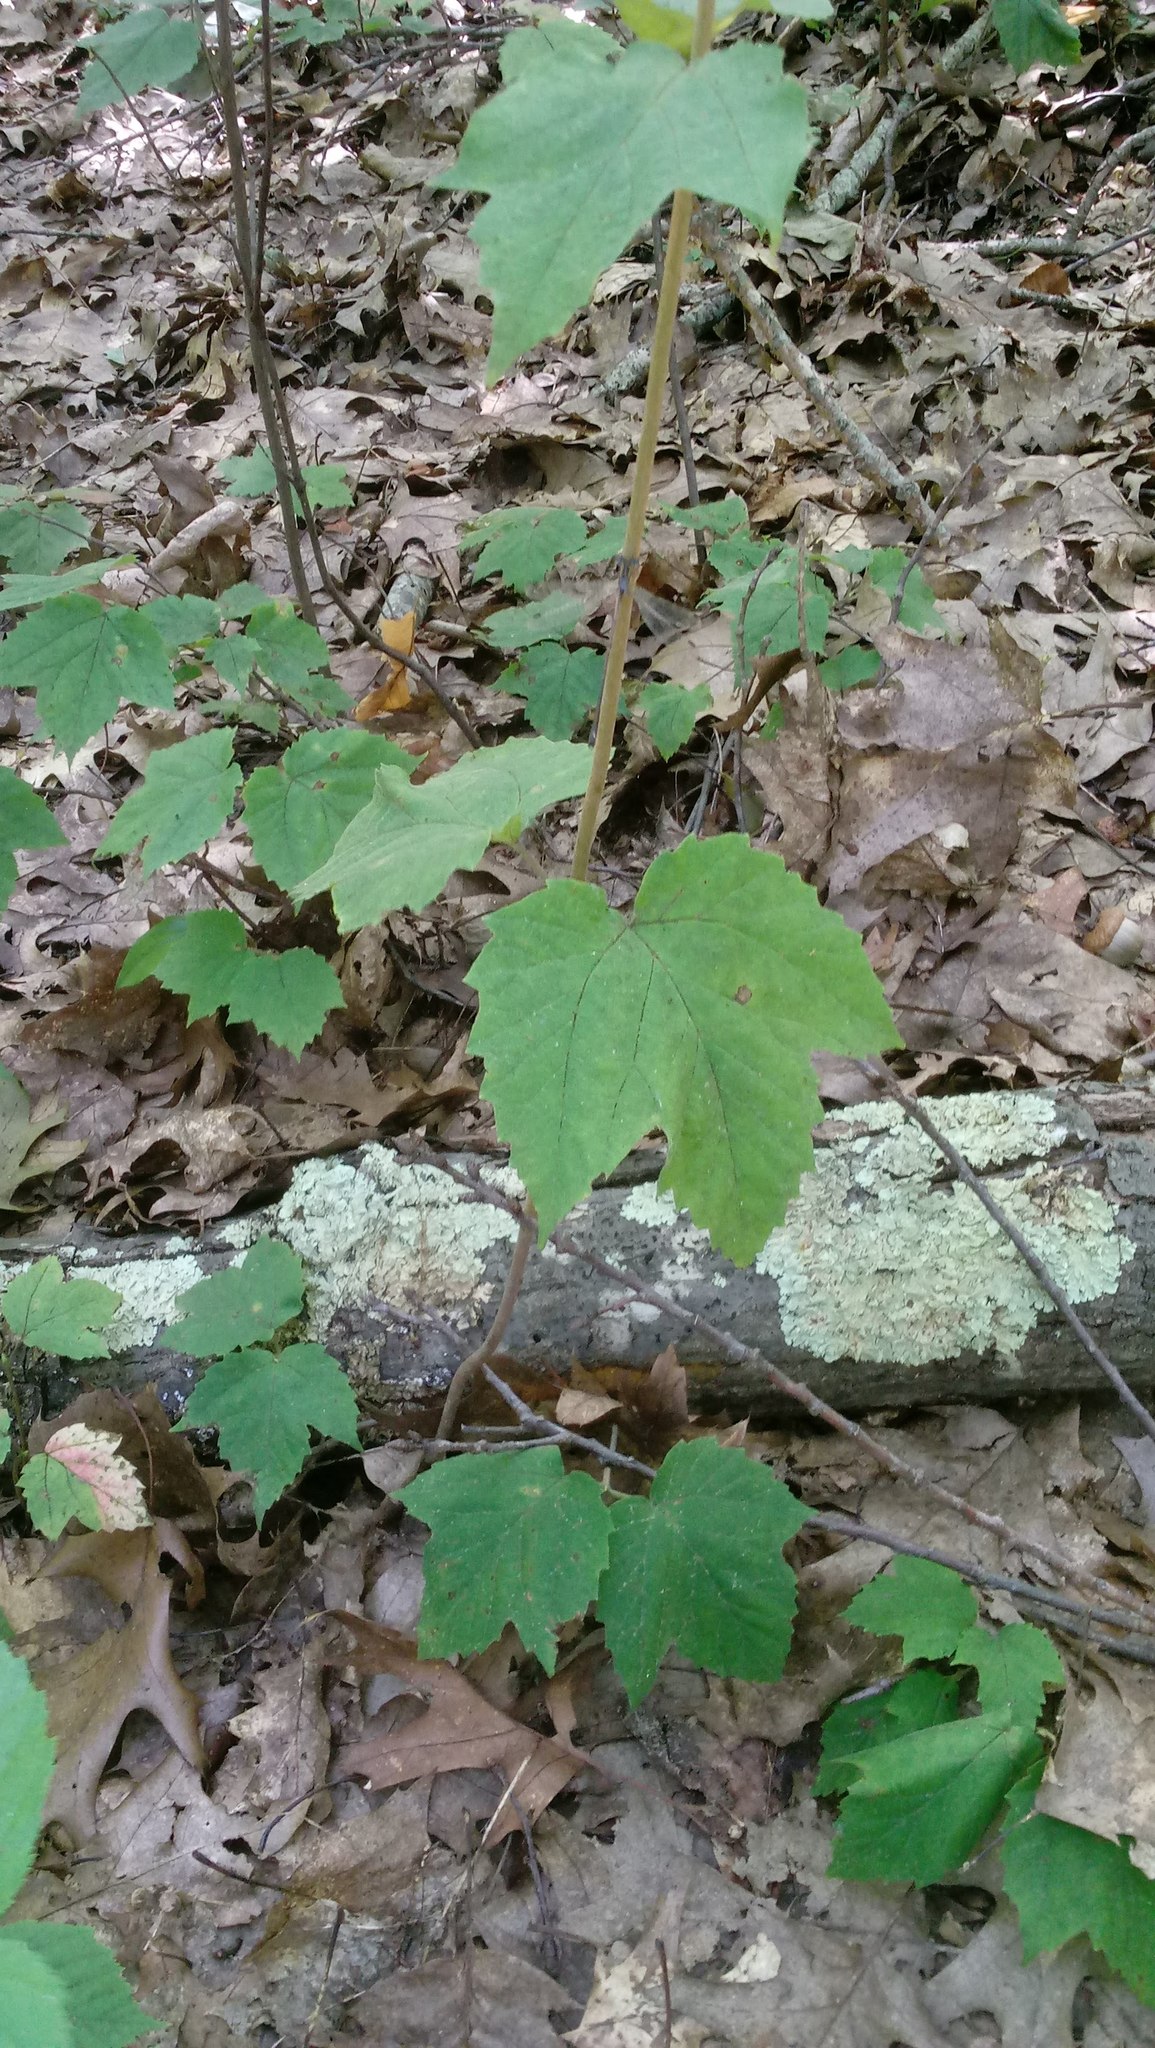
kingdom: Plantae
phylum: Tracheophyta
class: Magnoliopsida
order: Dipsacales
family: Viburnaceae
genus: Viburnum
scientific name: Viburnum acerifolium
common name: Dockmackie
